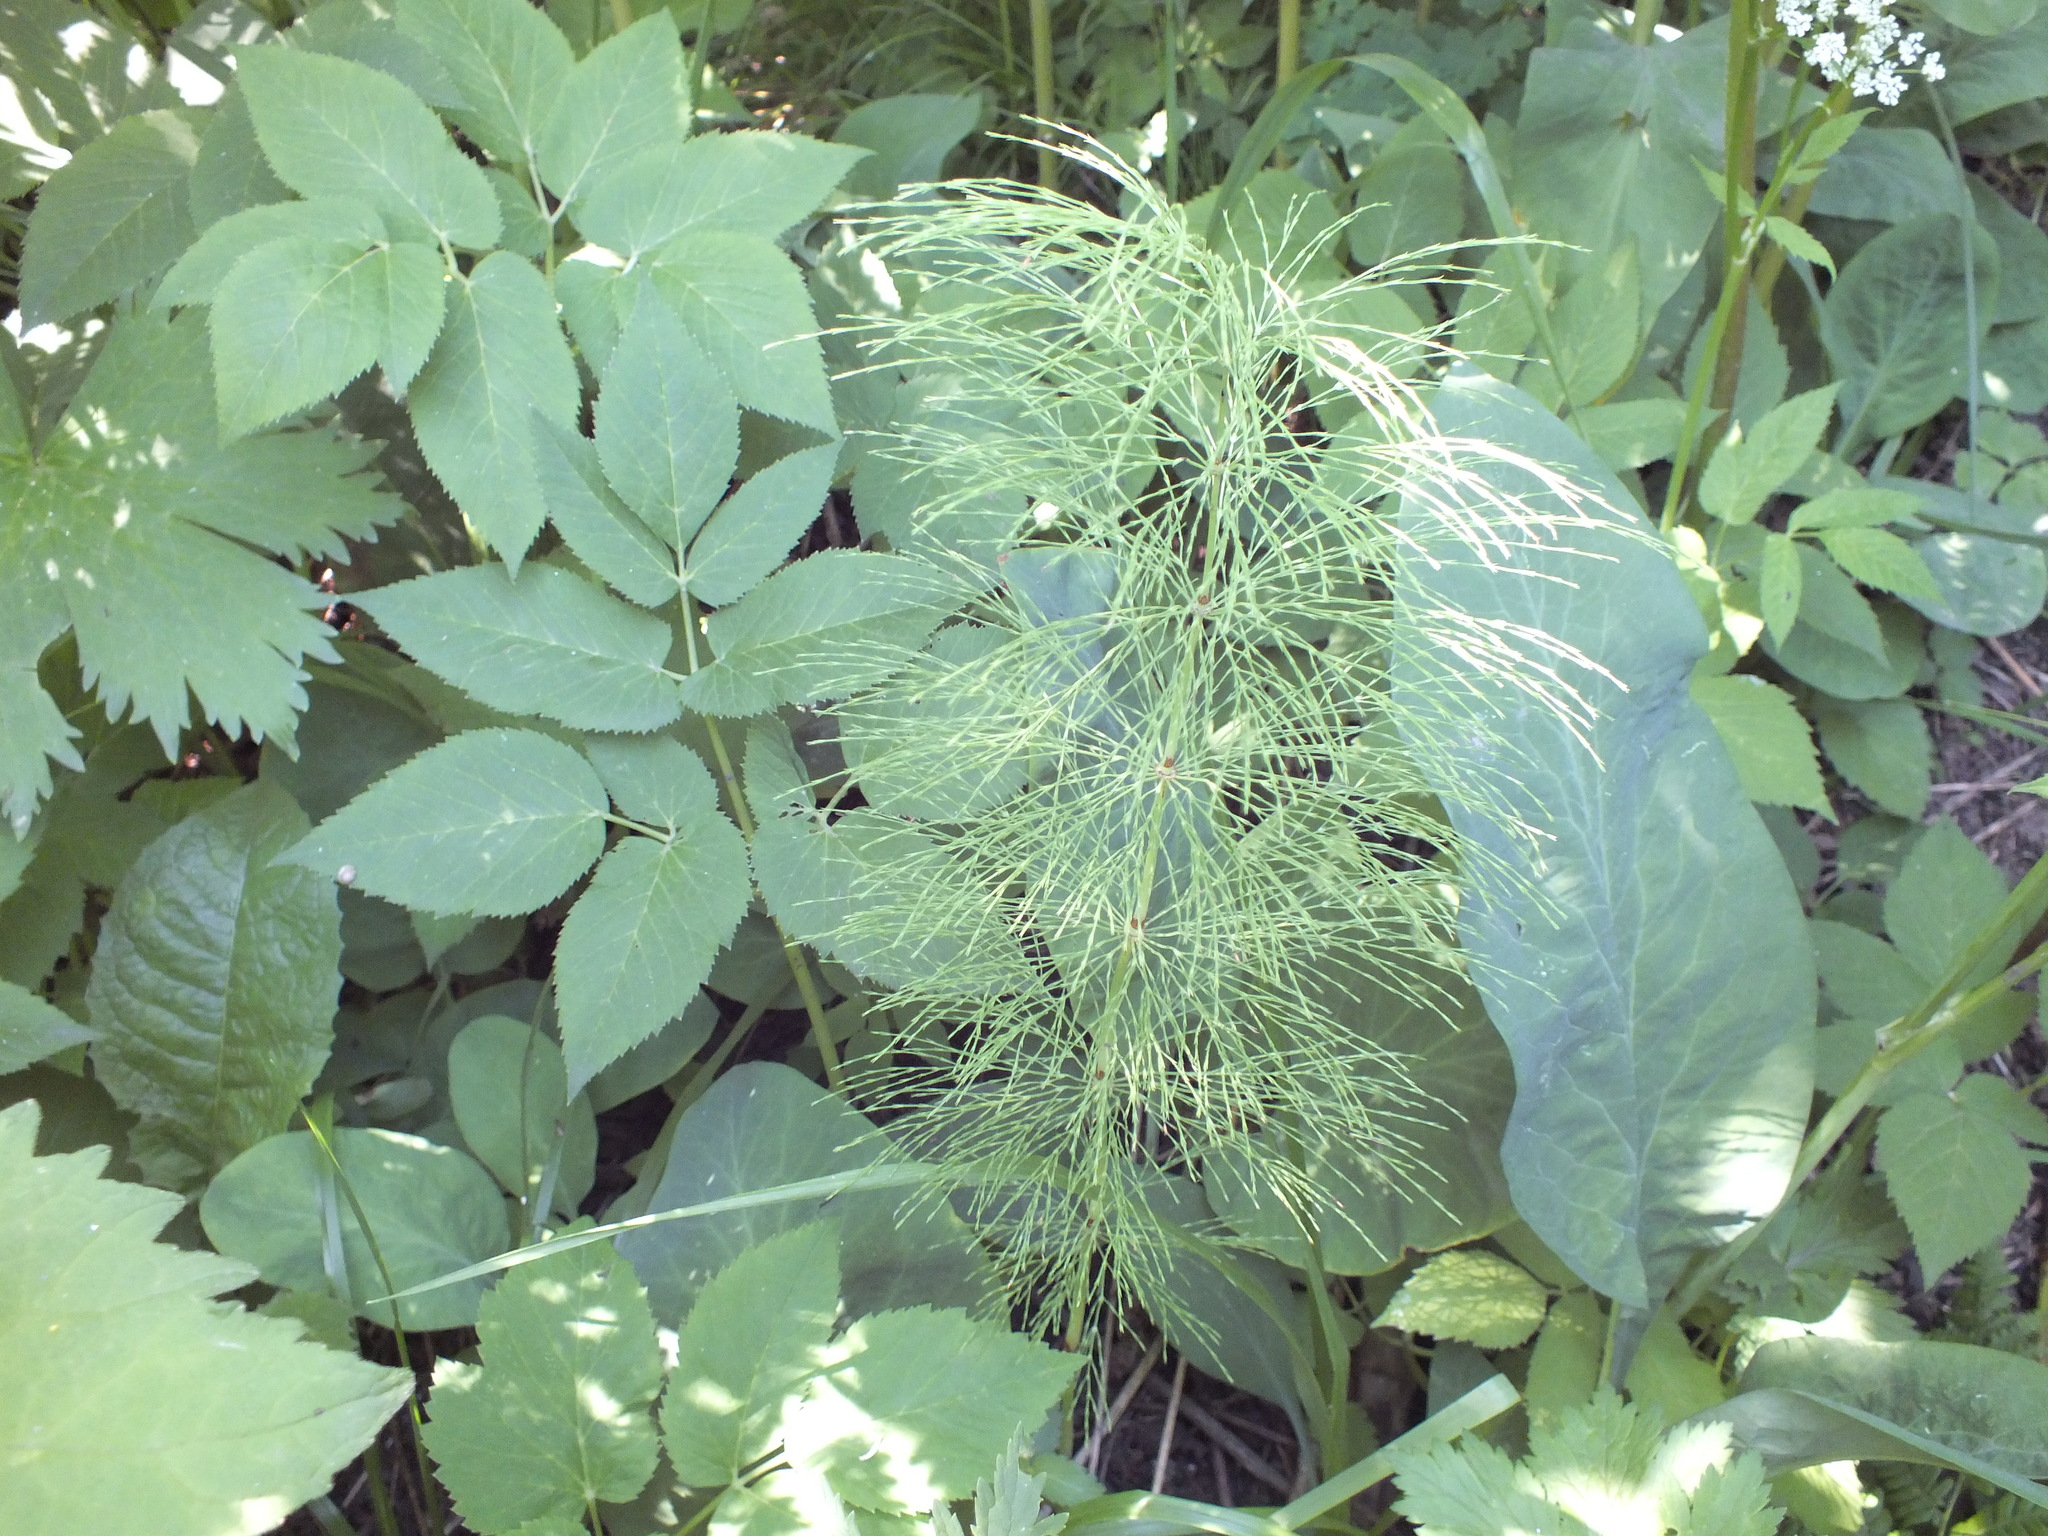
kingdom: Plantae
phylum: Tracheophyta
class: Polypodiopsida
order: Equisetales
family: Equisetaceae
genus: Equisetum
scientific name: Equisetum sylvaticum
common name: Wood horsetail
